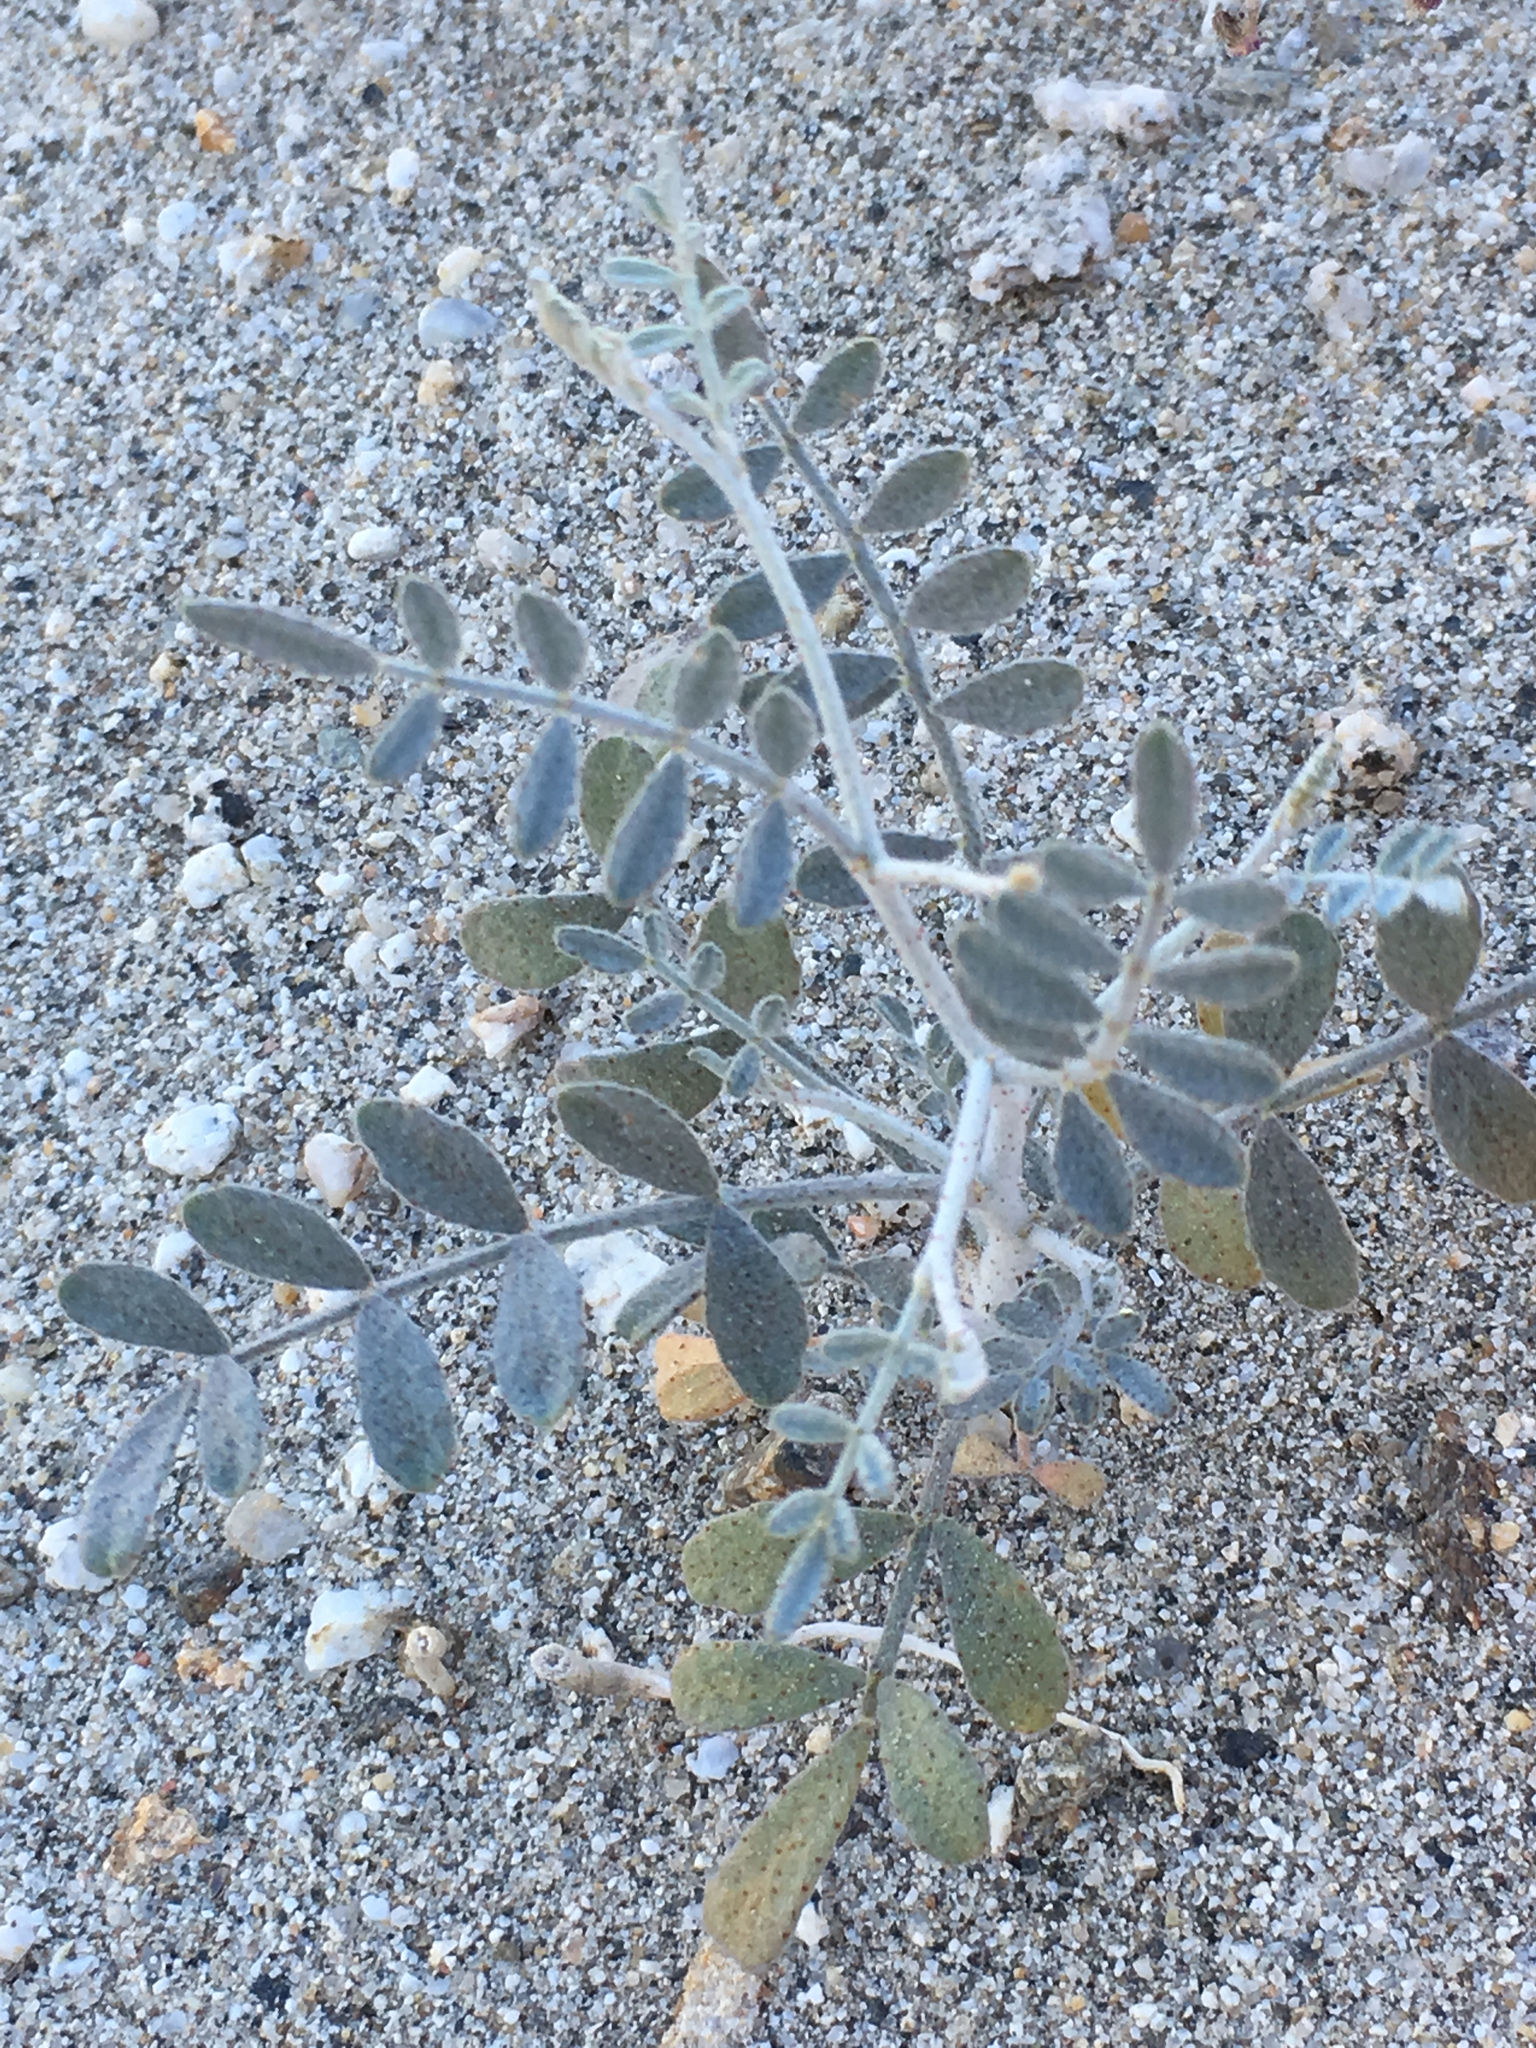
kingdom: Plantae
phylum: Tracheophyta
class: Magnoliopsida
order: Fabales
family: Fabaceae
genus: Psorothamnus
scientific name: Psorothamnus emoryi
